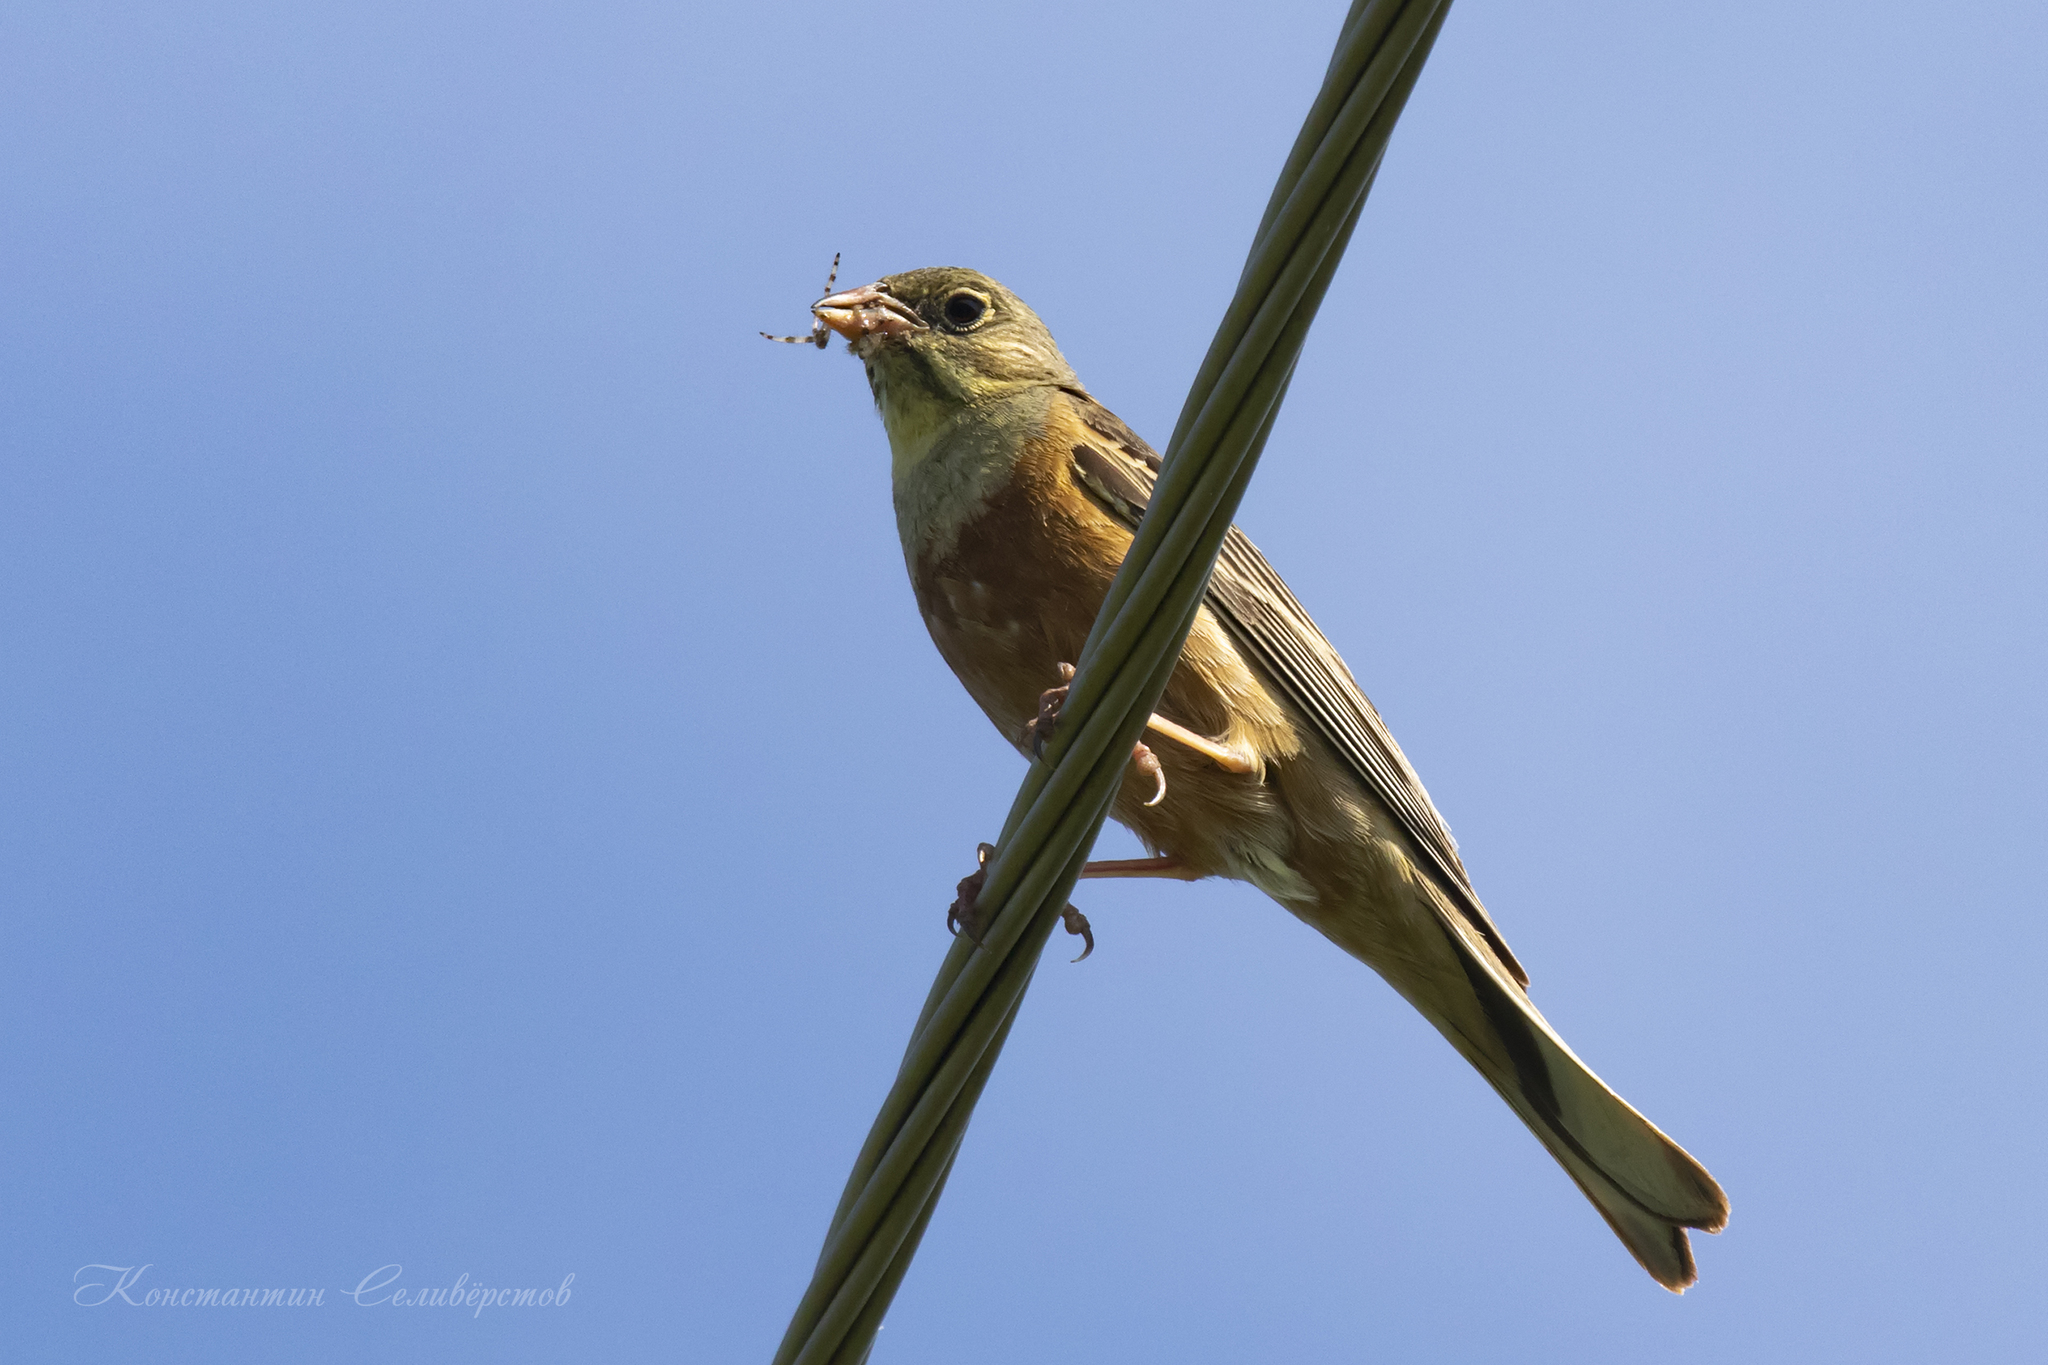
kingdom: Animalia
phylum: Chordata
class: Aves
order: Passeriformes
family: Emberizidae
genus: Emberiza
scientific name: Emberiza hortulana
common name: Ortolan bunting
